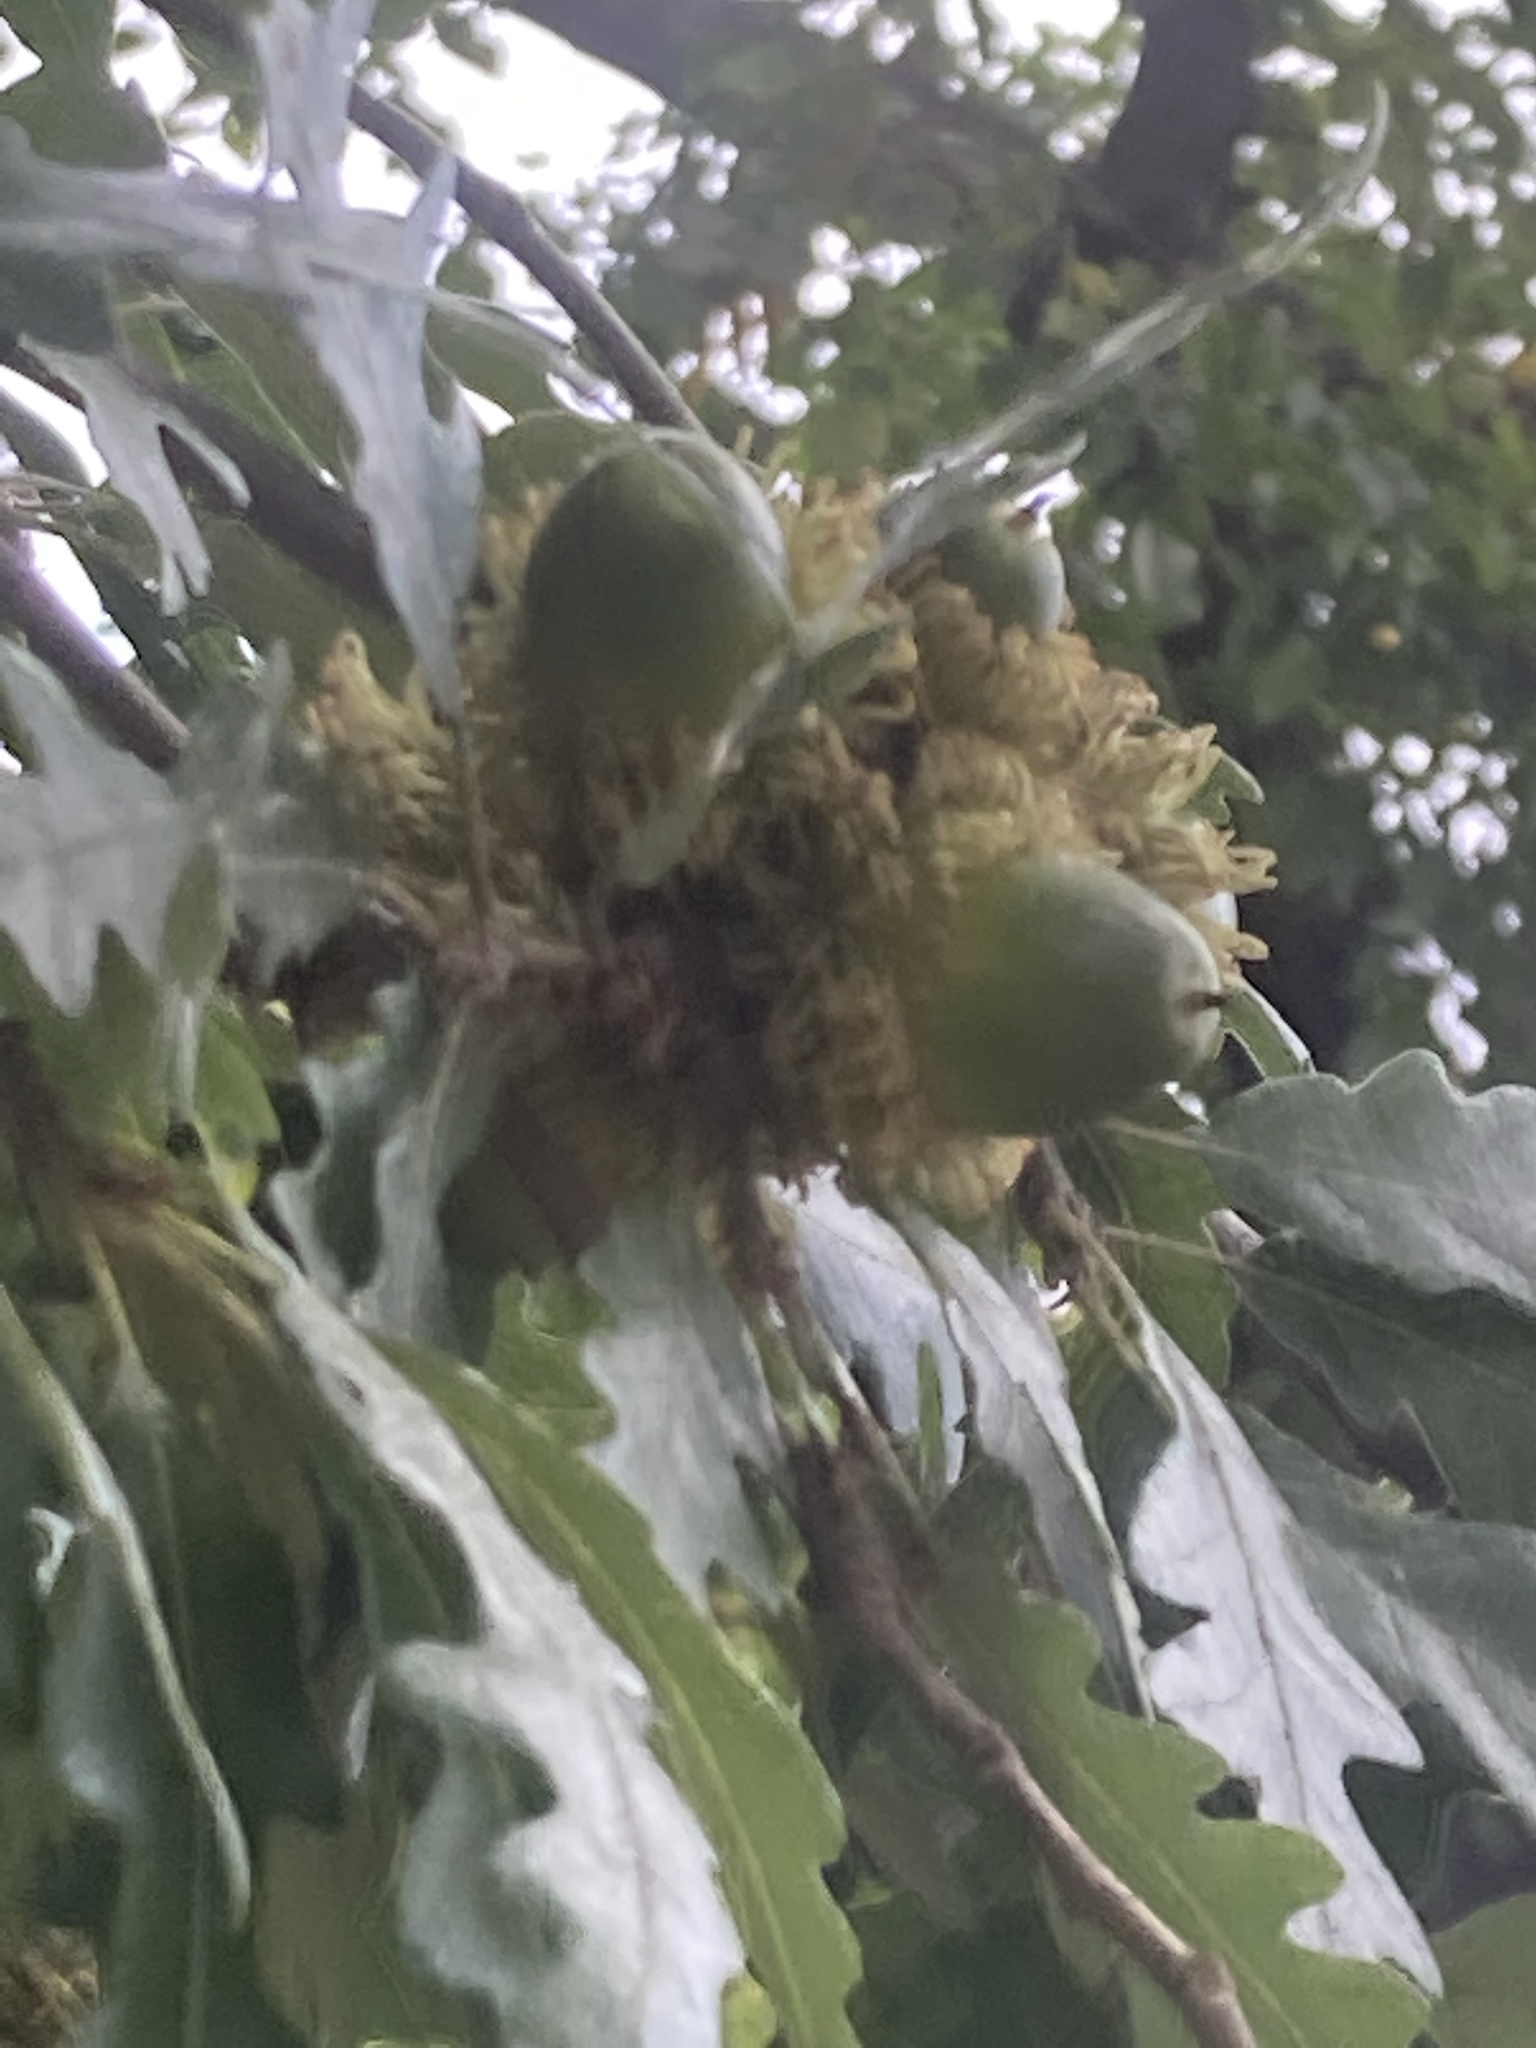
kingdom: Plantae
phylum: Tracheophyta
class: Magnoliopsida
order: Fagales
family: Fagaceae
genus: Quercus
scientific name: Quercus cerris
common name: Turkey oak
